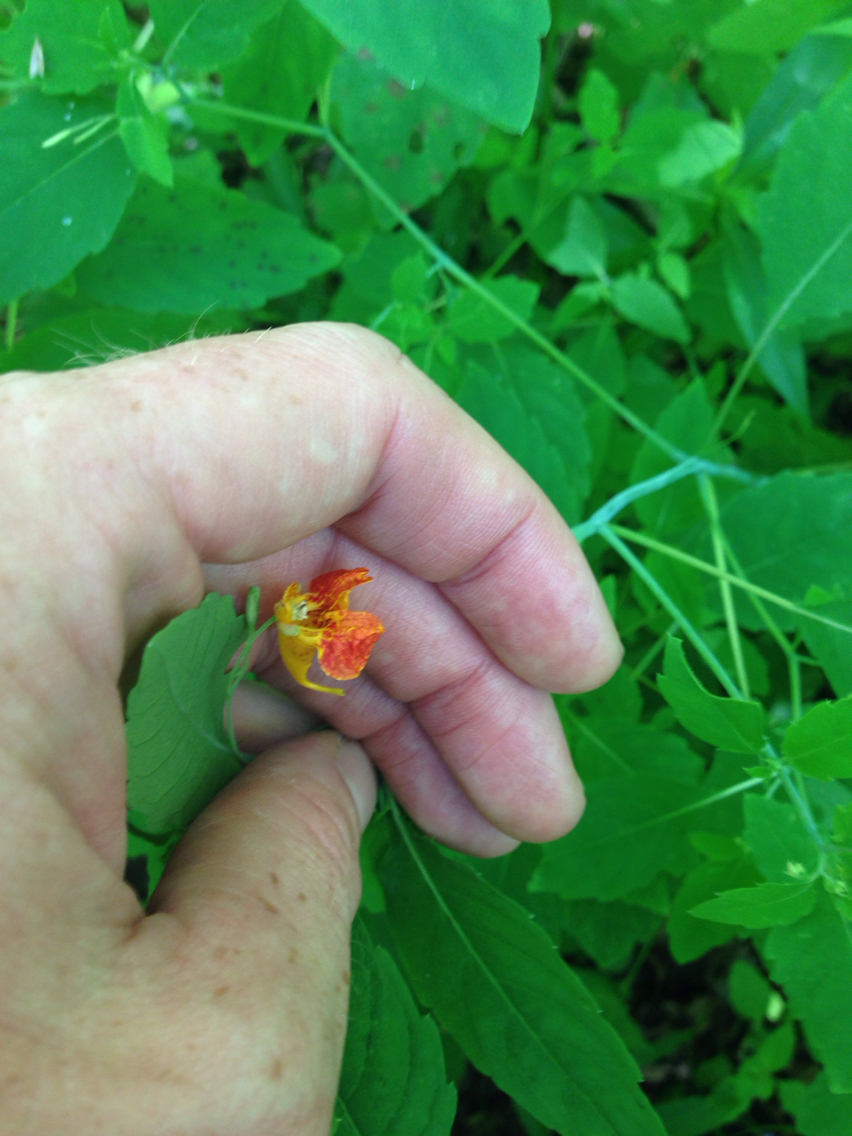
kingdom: Plantae
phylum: Tracheophyta
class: Magnoliopsida
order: Ericales
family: Balsaminaceae
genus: Impatiens
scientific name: Impatiens capensis
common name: Orange balsam
